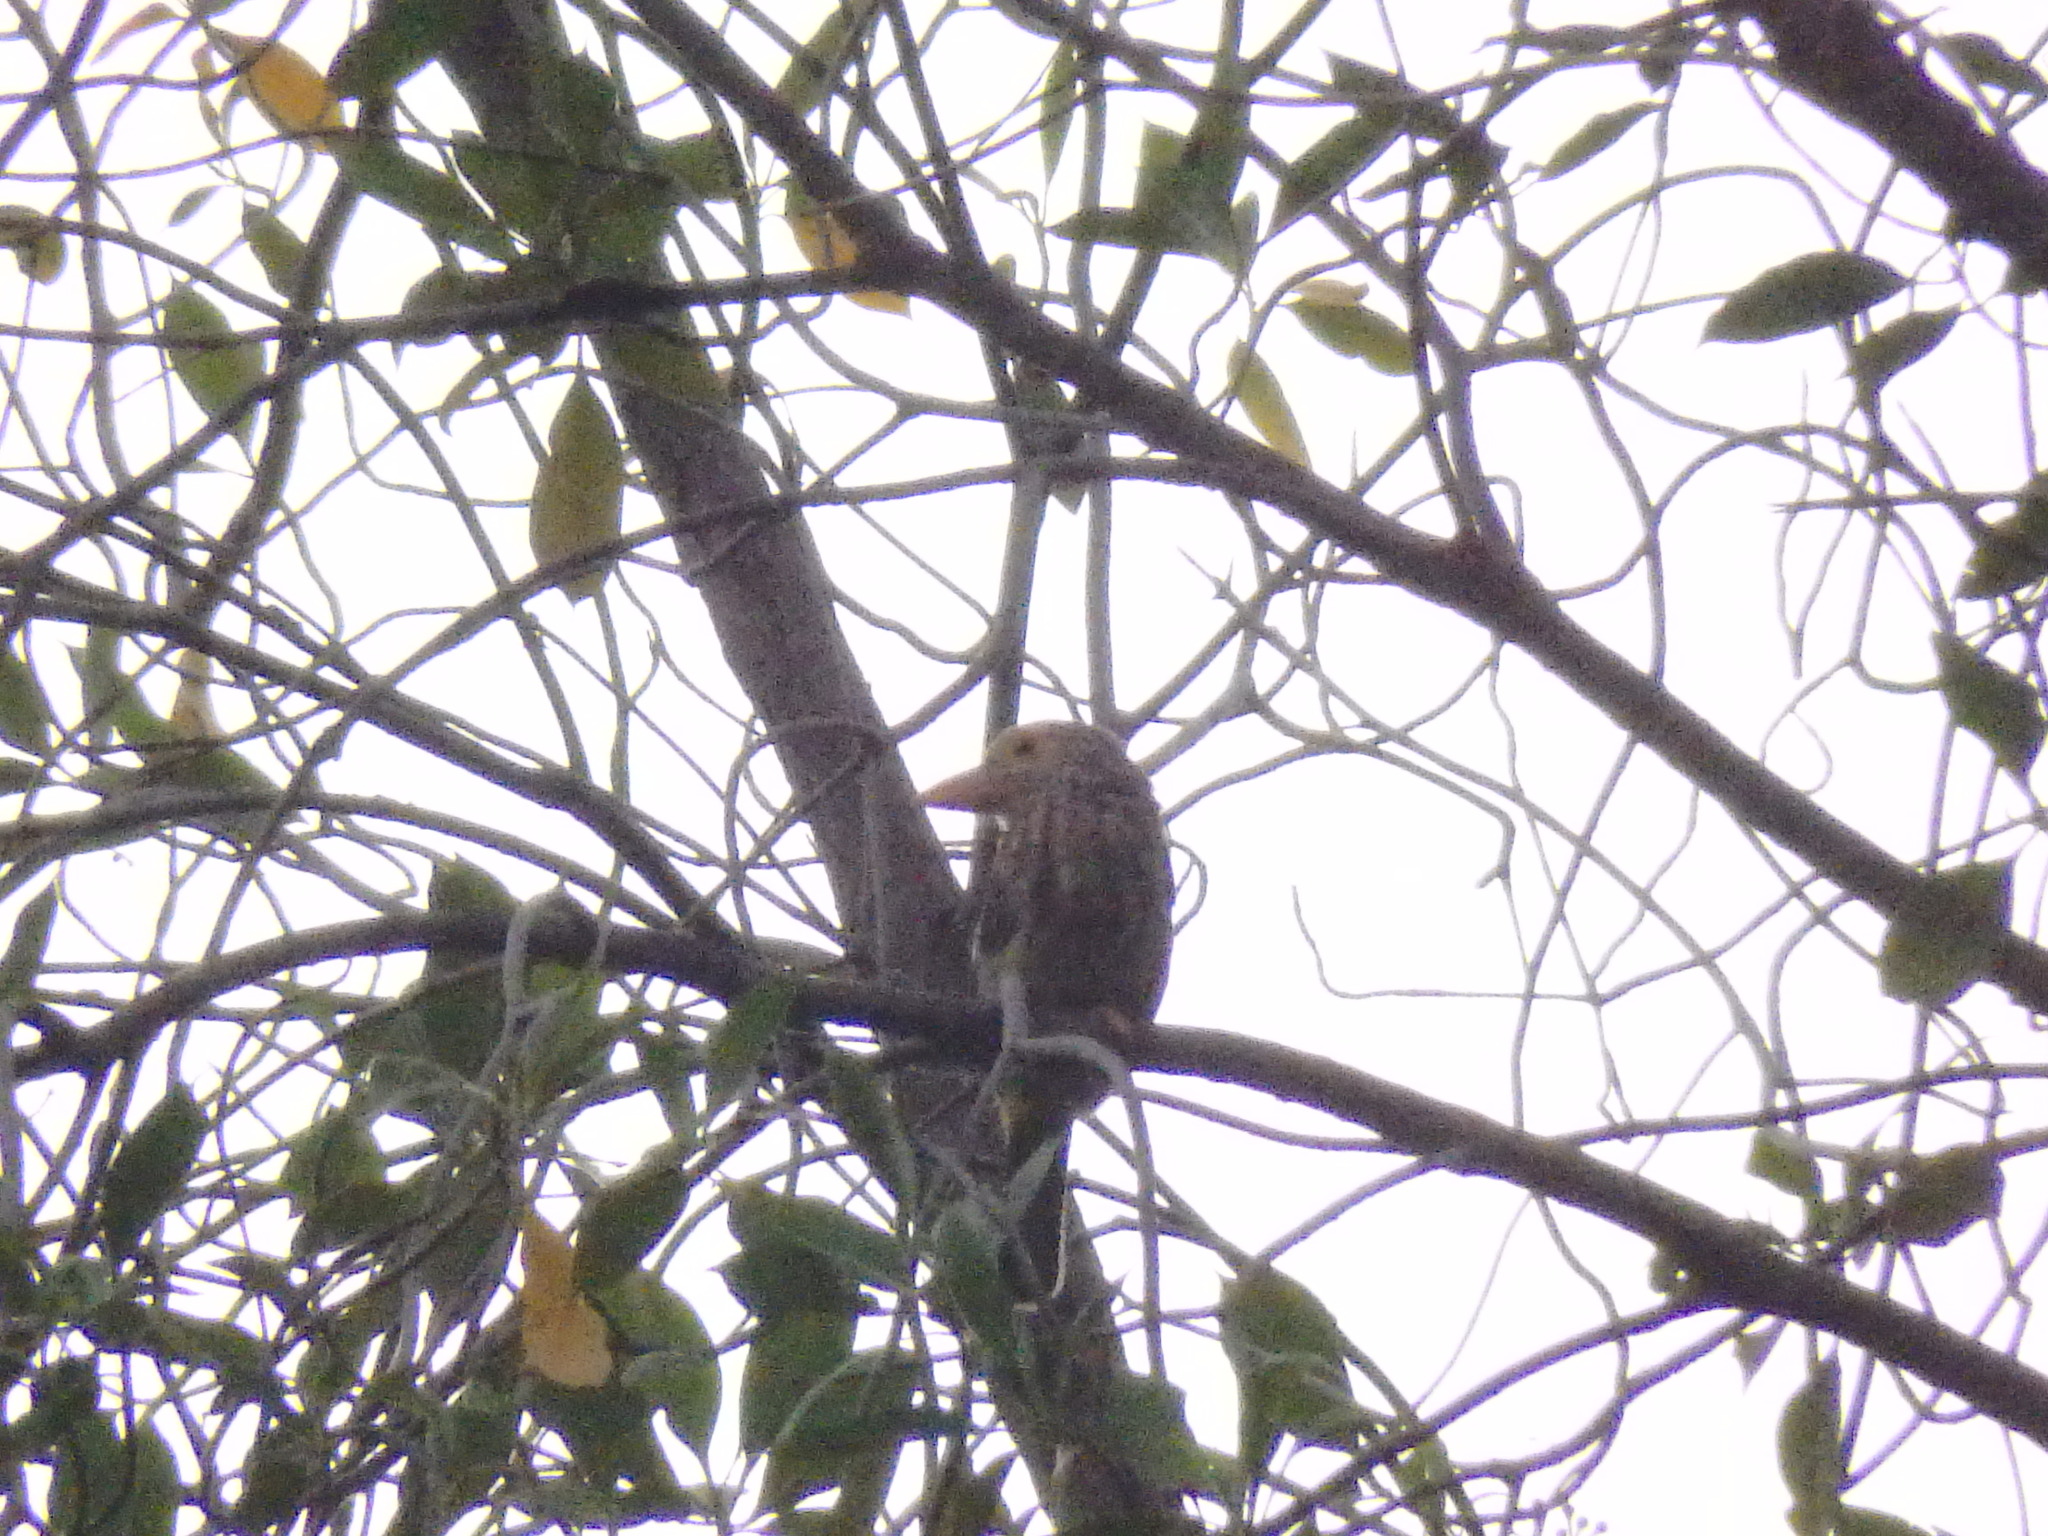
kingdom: Animalia
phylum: Chordata
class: Aves
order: Piciformes
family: Megalaimidae
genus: Psilopogon
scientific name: Psilopogon lineatus
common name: Lineated barbet
